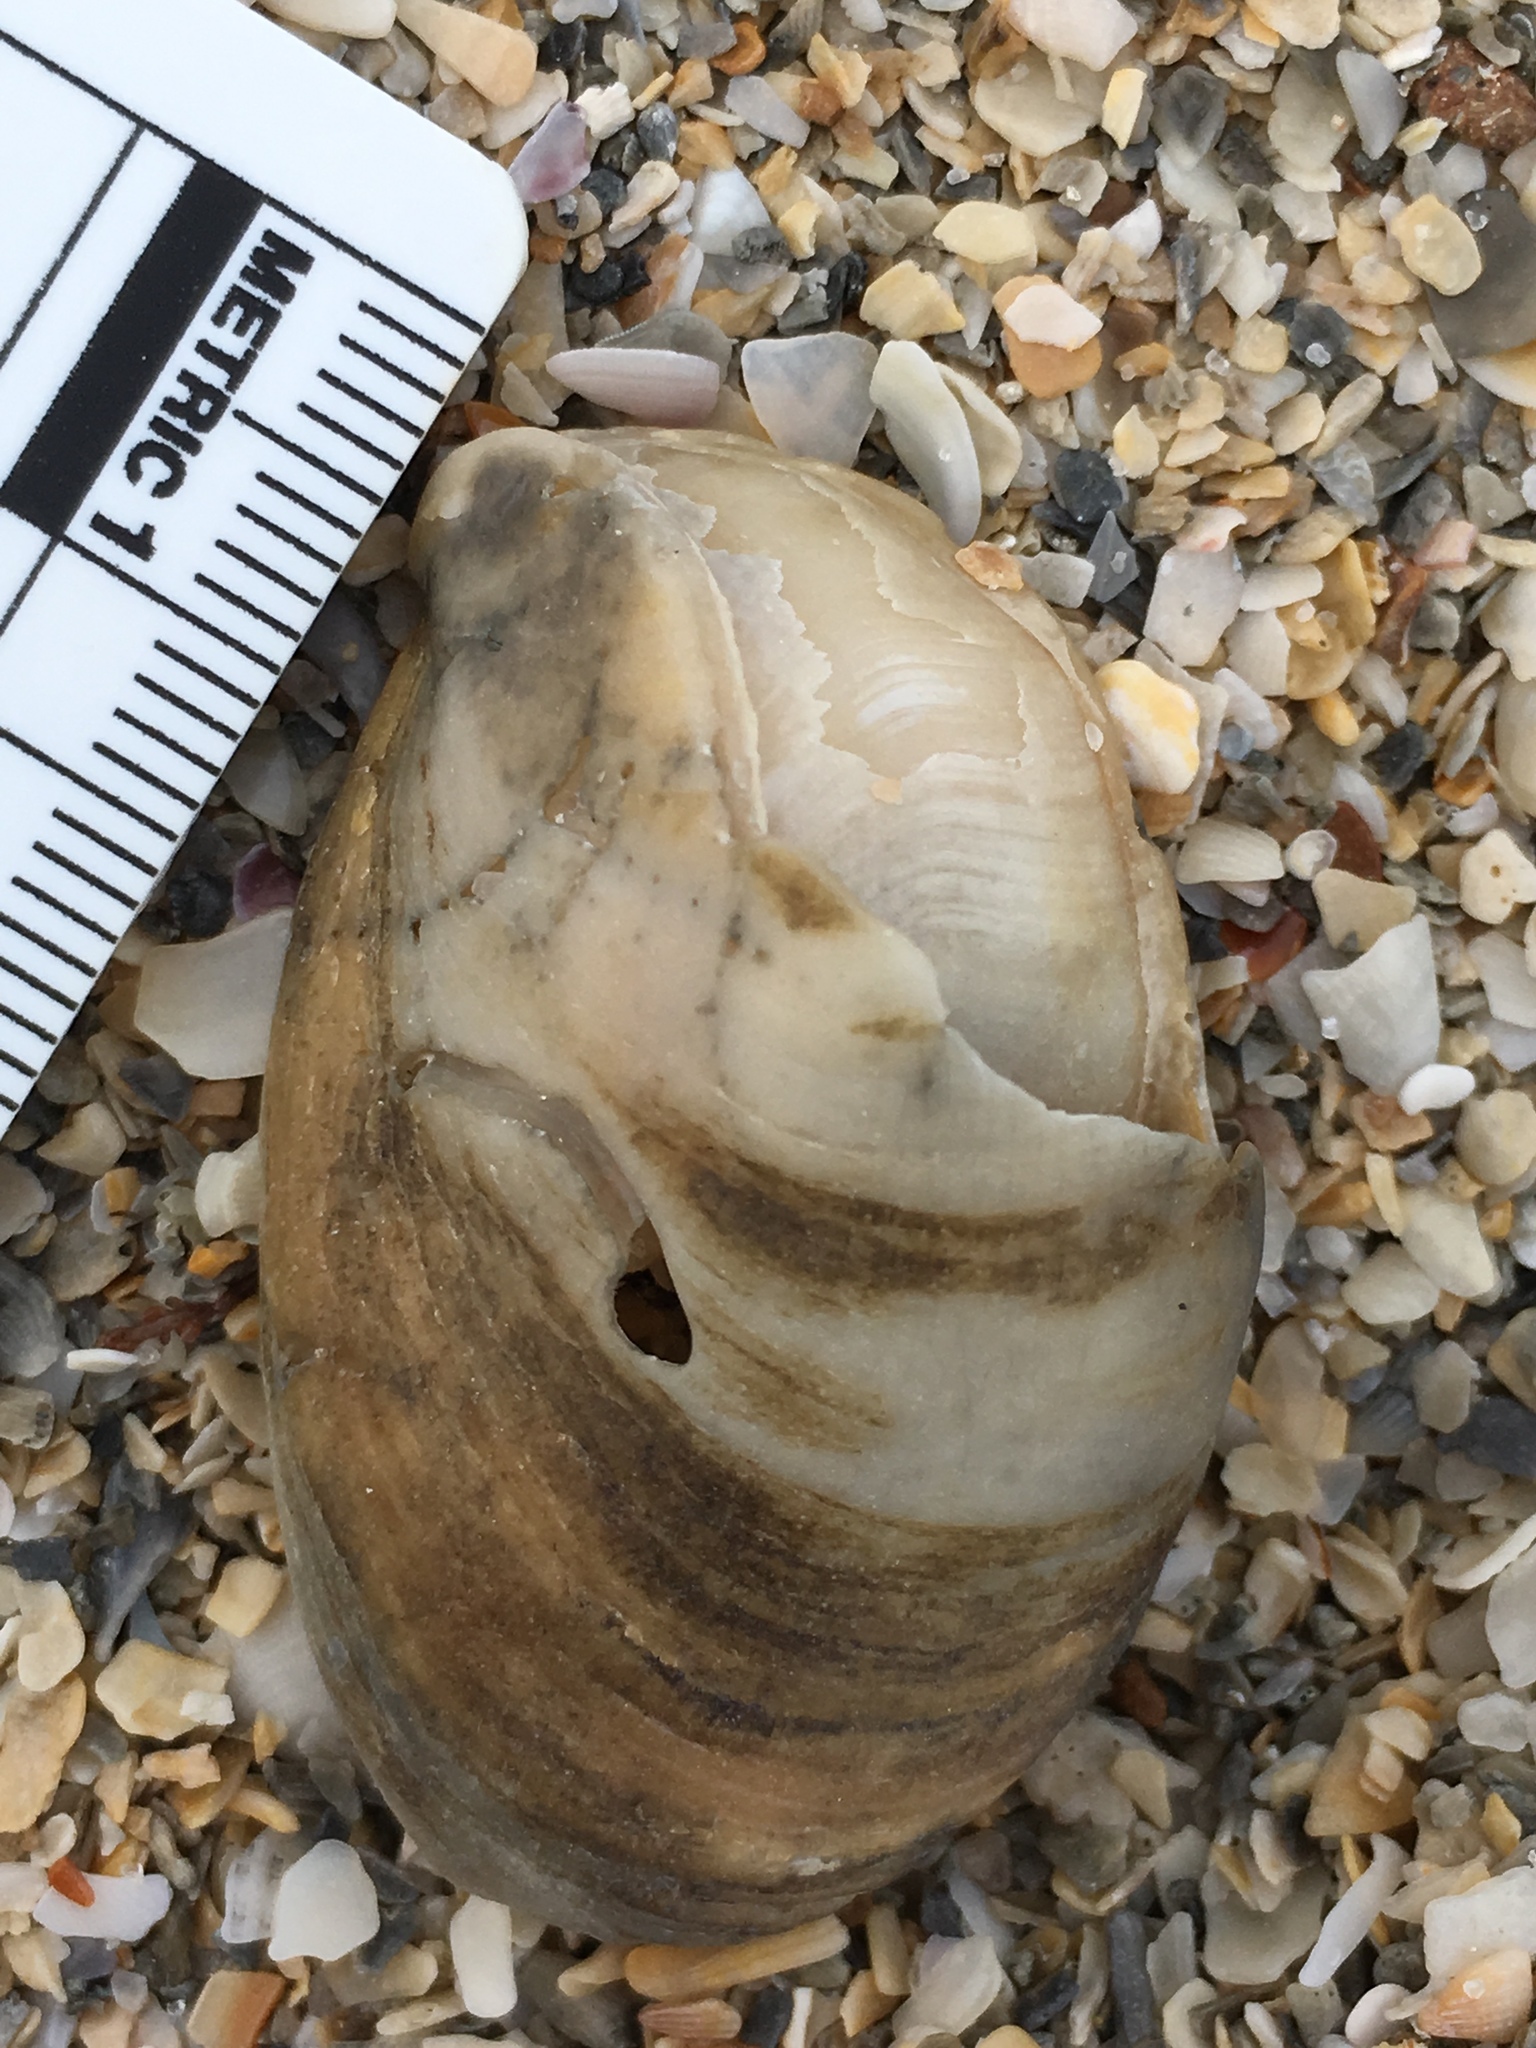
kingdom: Animalia
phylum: Mollusca
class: Gastropoda
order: Littorinimorpha
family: Calyptraeidae
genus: Crepidula
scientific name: Crepidula fornicata
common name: Slipper limpet
